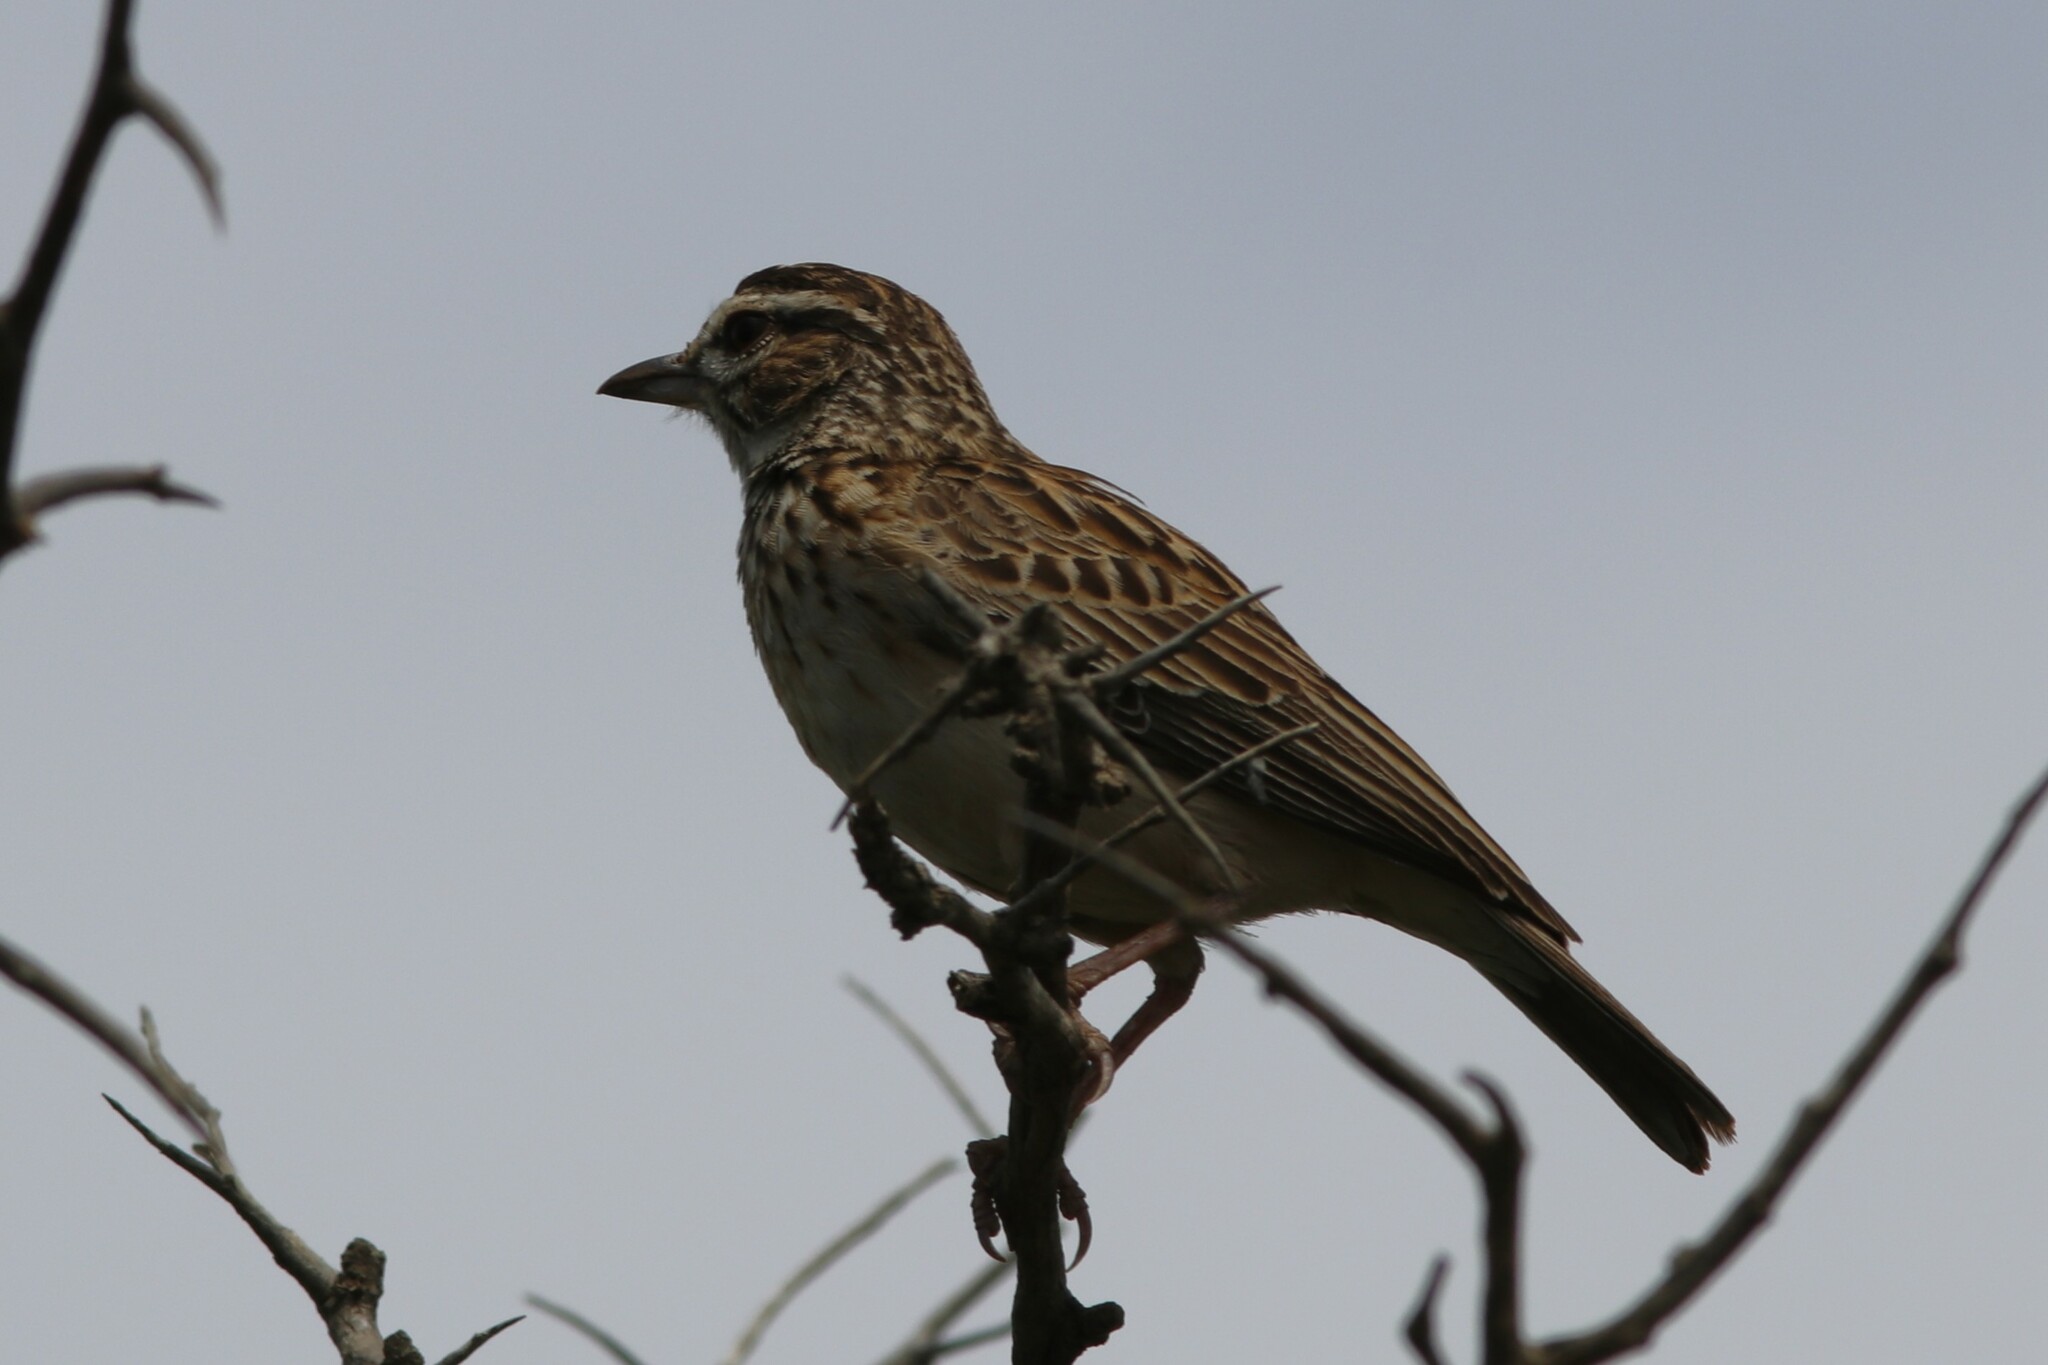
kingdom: Animalia
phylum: Chordata
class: Aves
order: Passeriformes
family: Alaudidae
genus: Calendulauda
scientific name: Calendulauda sabota
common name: Sabota lark
